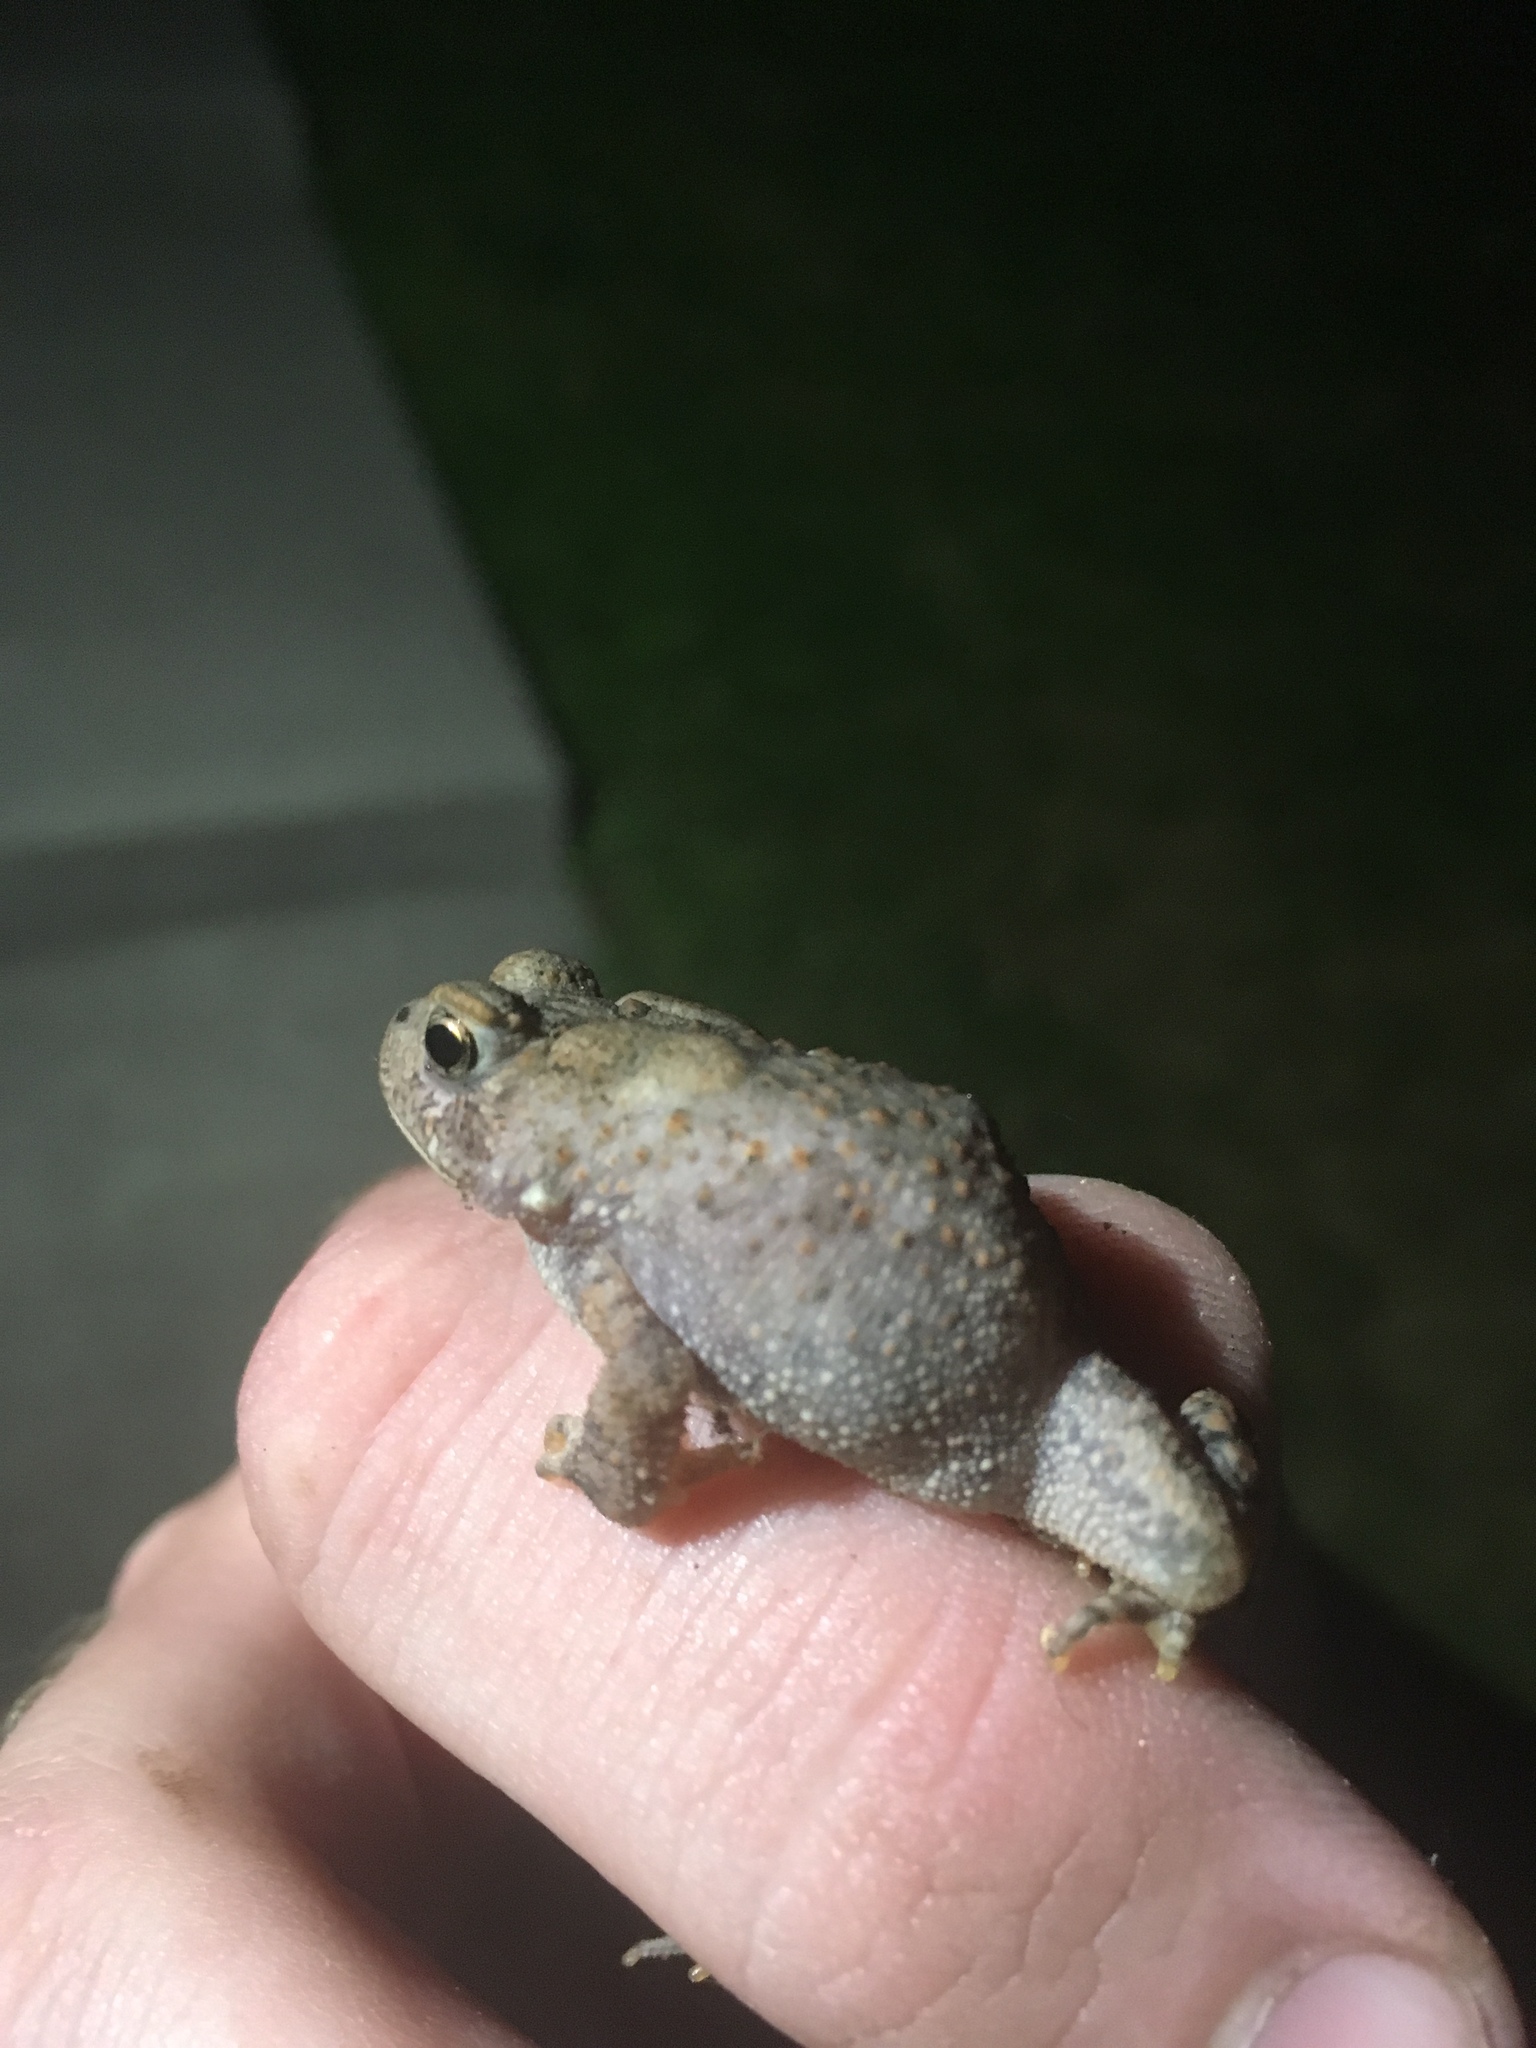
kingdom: Animalia
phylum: Chordata
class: Amphibia
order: Anura
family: Bufonidae
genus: Anaxyrus
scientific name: Anaxyrus americanus
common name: American toad
